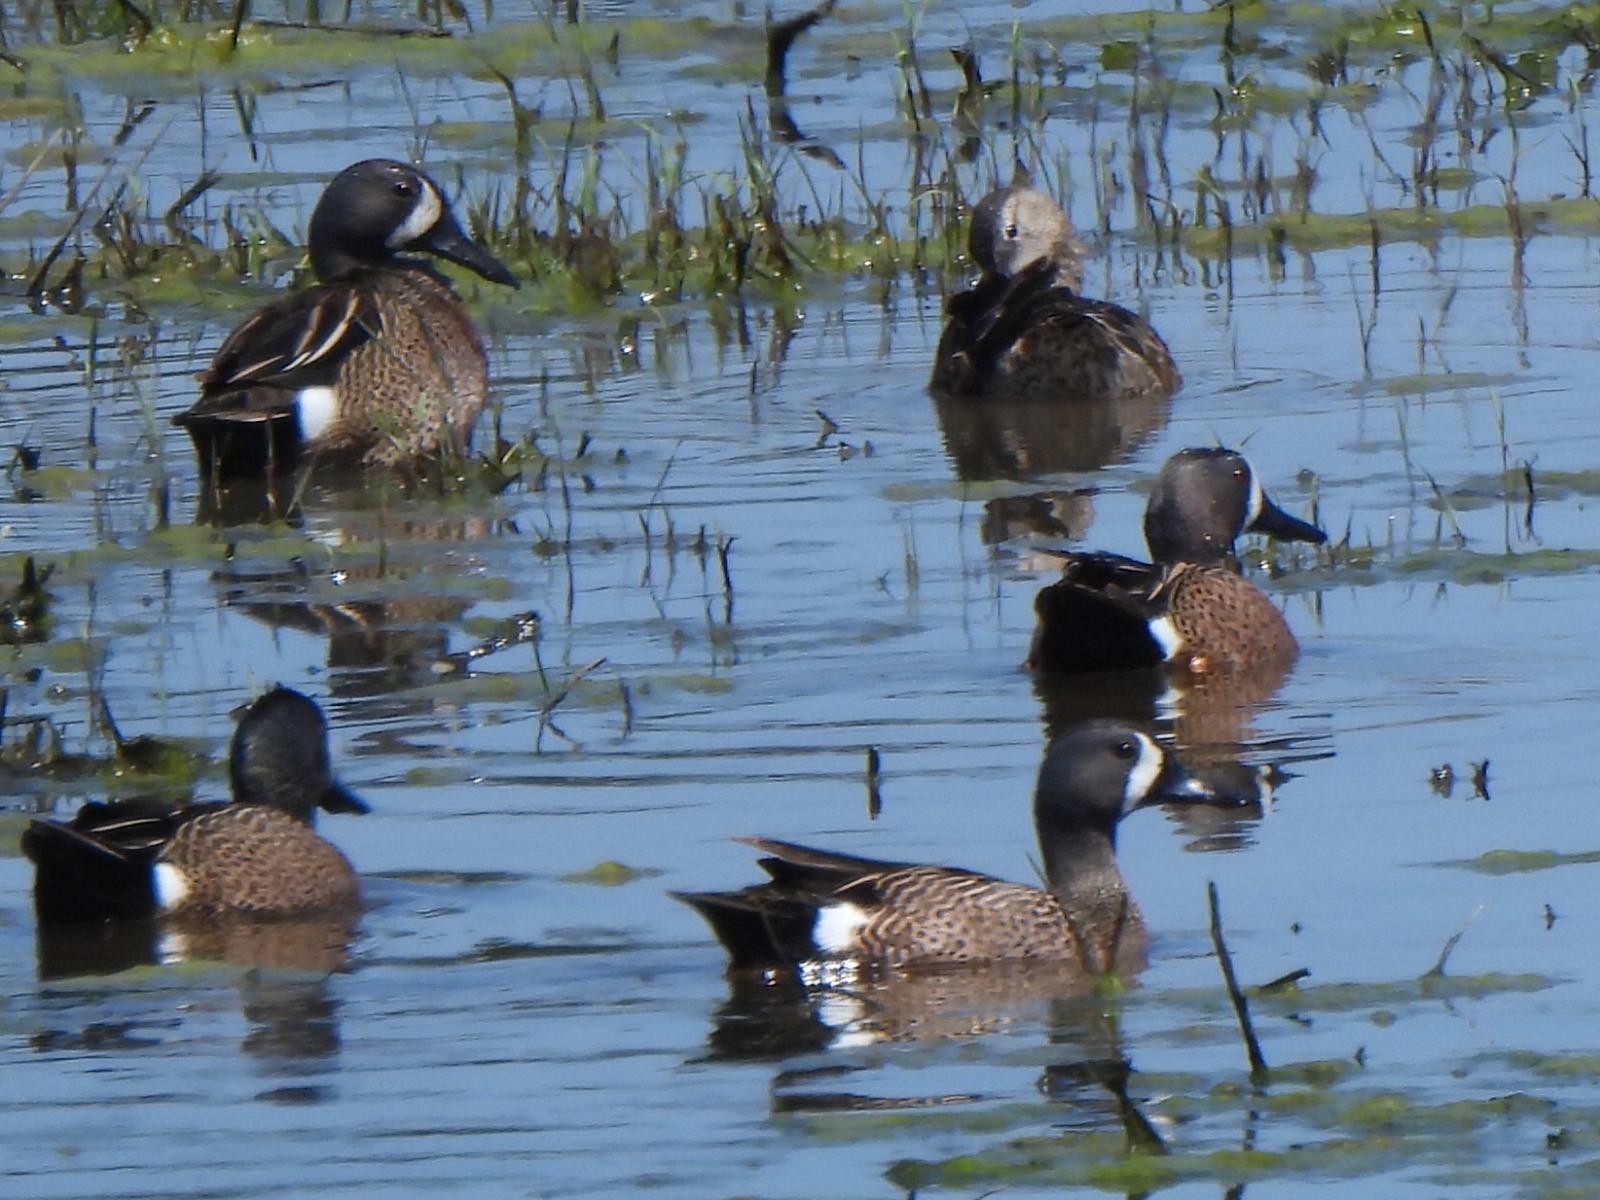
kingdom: Animalia
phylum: Chordata
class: Aves
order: Anseriformes
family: Anatidae
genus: Spatula
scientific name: Spatula discors
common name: Blue-winged teal
